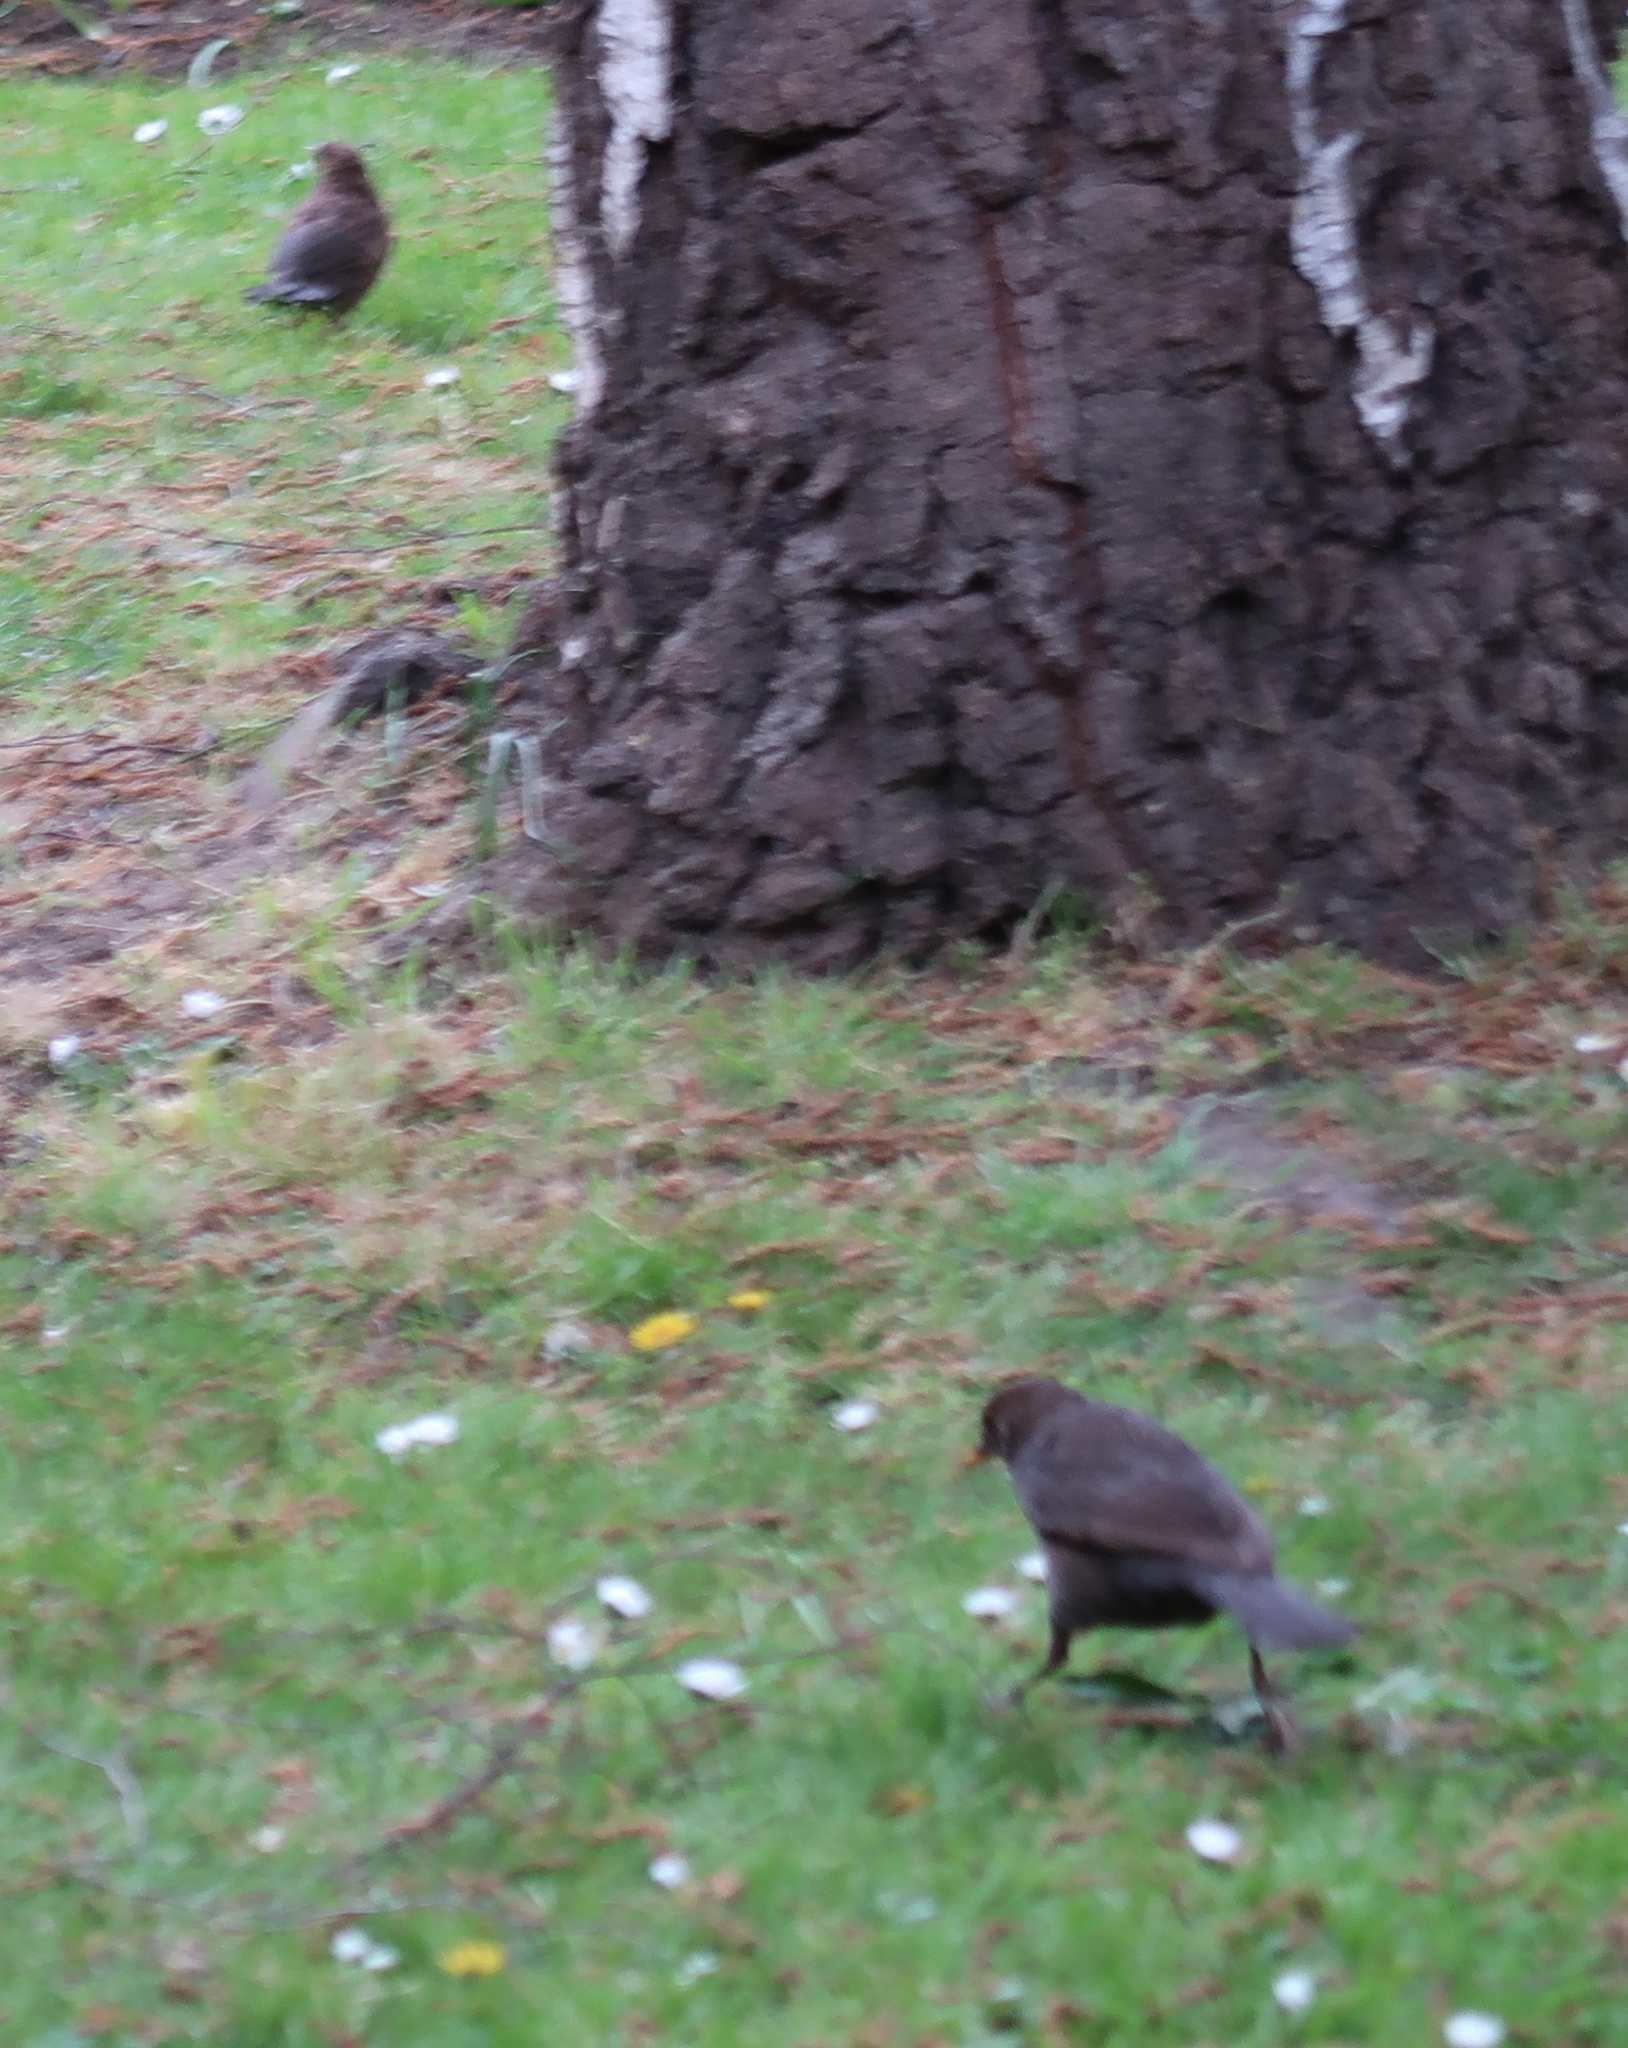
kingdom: Animalia
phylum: Chordata
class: Aves
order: Passeriformes
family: Turdidae
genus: Turdus
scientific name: Turdus merula
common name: Common blackbird
